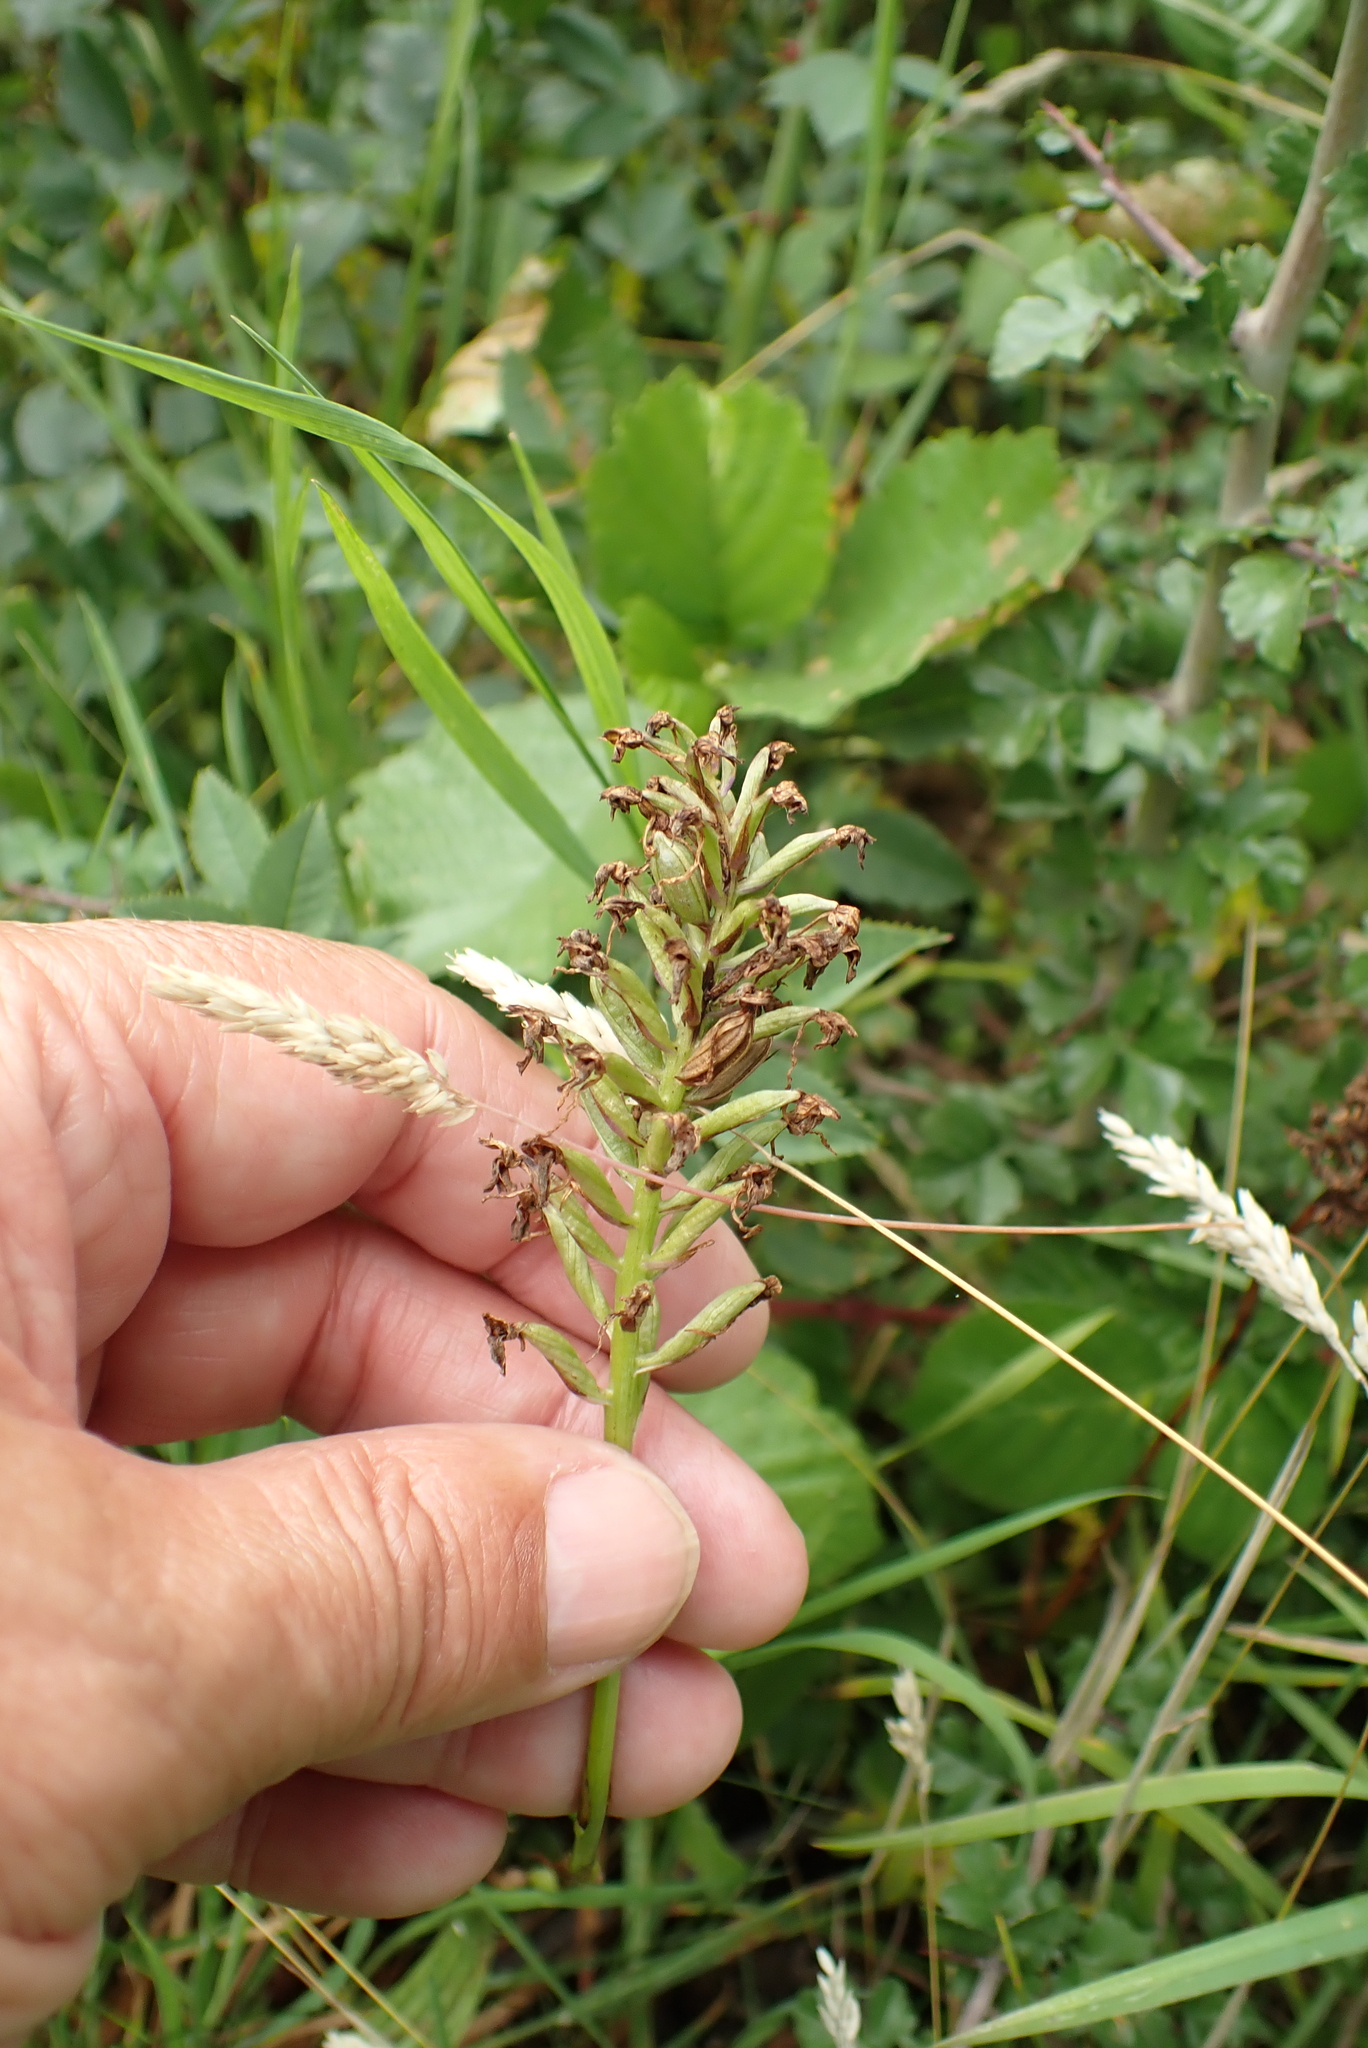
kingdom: Plantae
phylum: Tracheophyta
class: Liliopsida
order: Asparagales
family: Orchidaceae
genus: Anacamptis
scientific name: Anacamptis pyramidalis
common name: Pyramidal orchid
